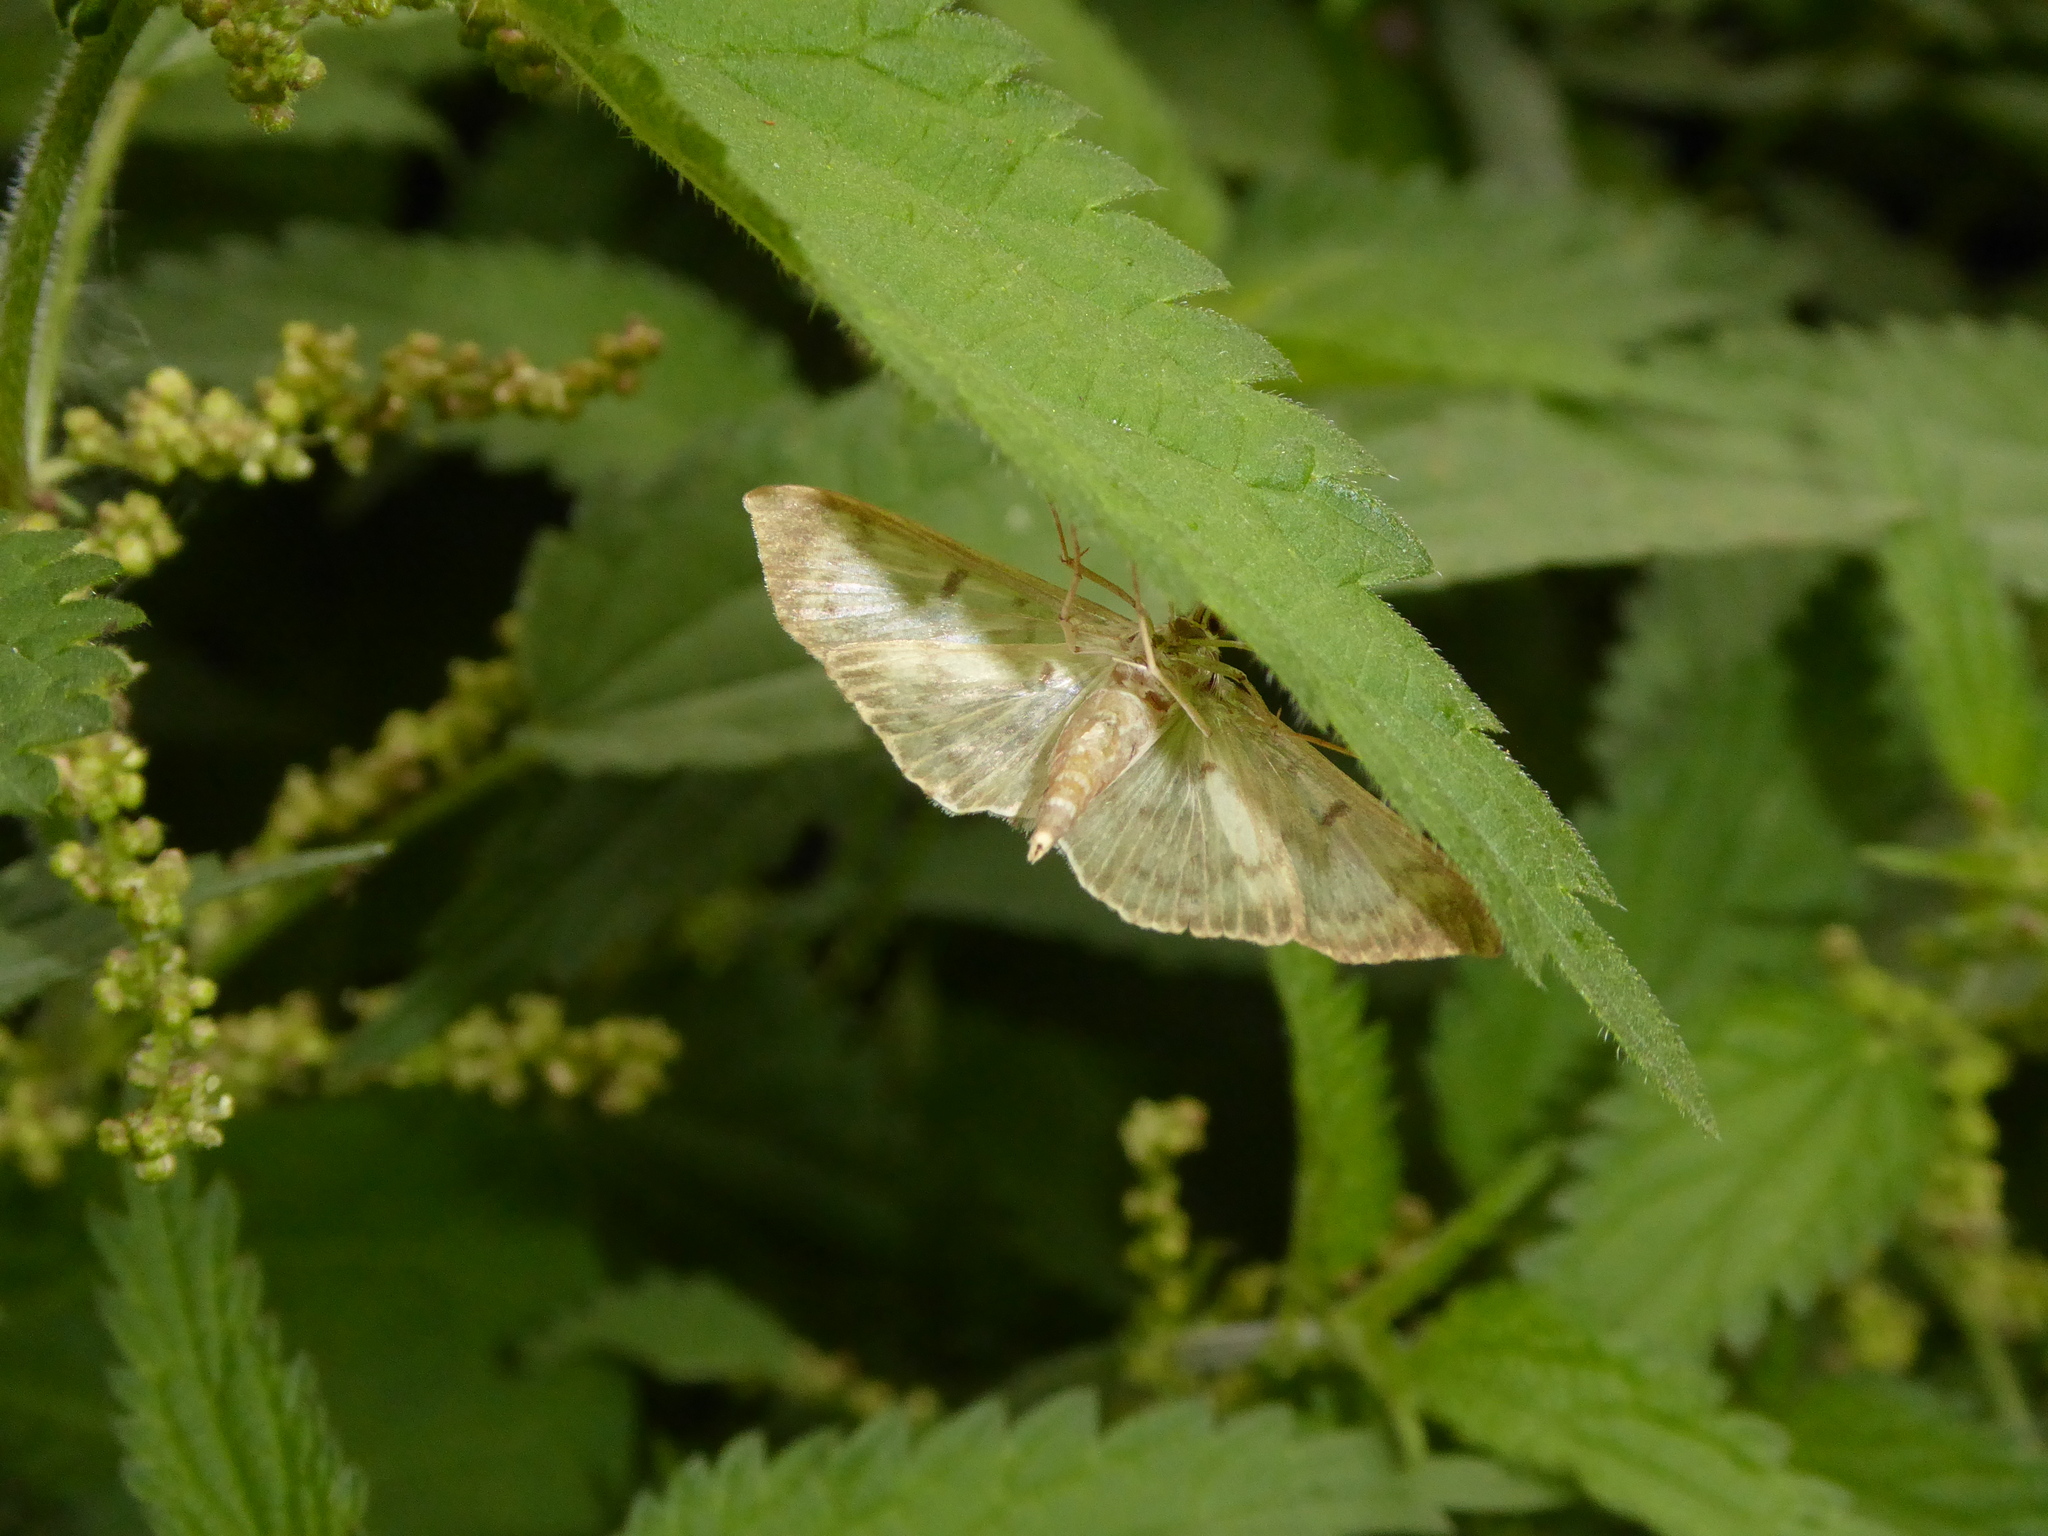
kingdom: Animalia
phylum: Arthropoda
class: Insecta
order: Lepidoptera
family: Crambidae
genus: Patania
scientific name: Patania ruralis
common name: Mother of pearl
